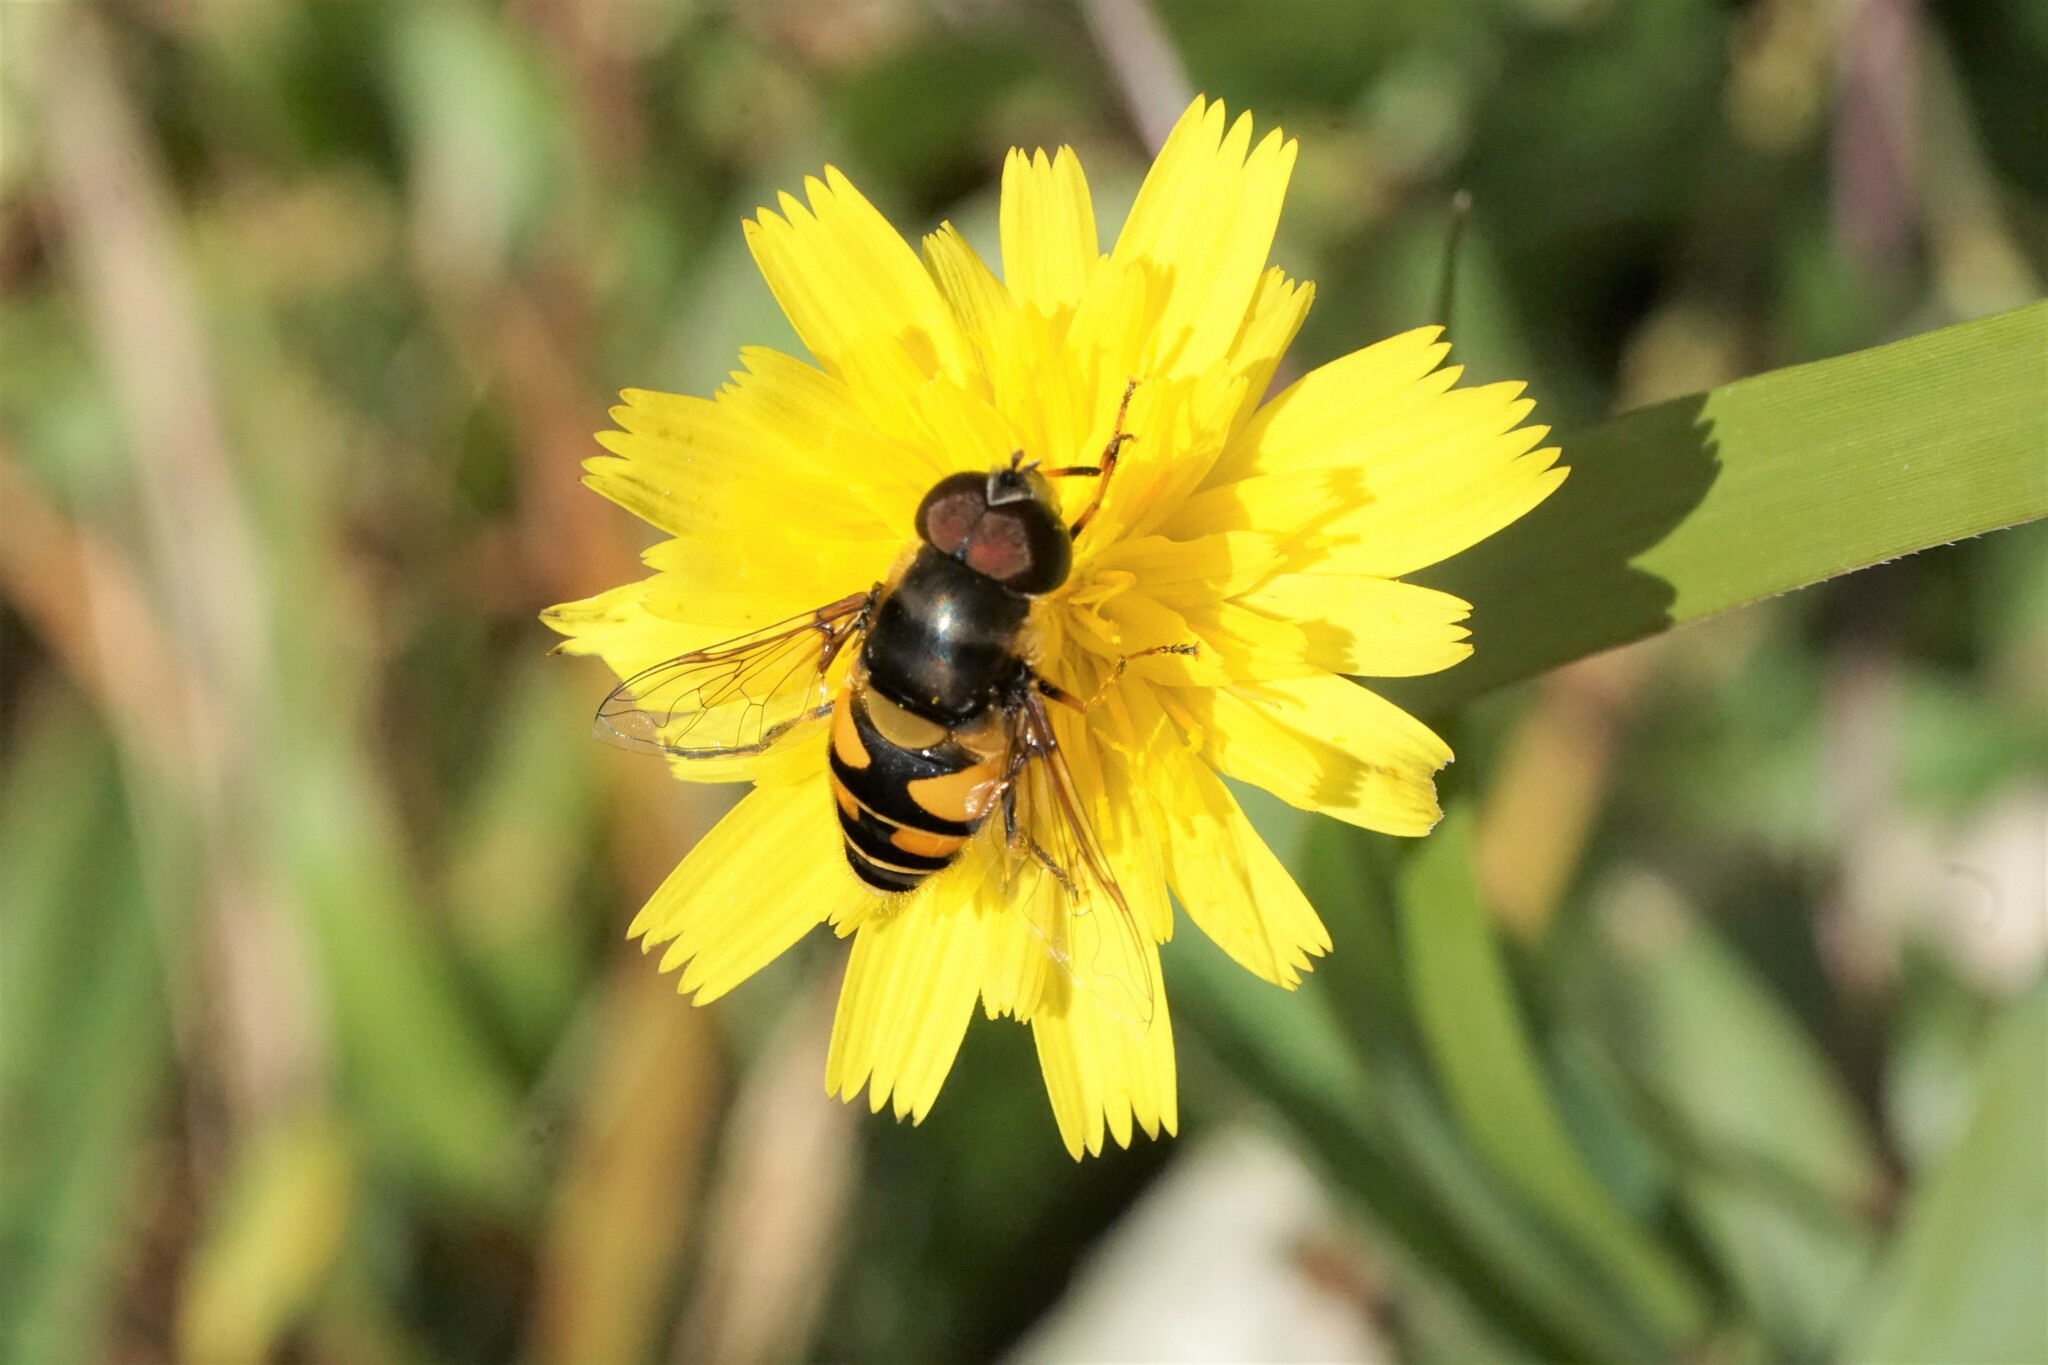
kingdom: Animalia
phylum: Arthropoda
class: Insecta
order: Diptera
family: Syrphidae
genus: Eristalis
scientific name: Eristalis transversa
